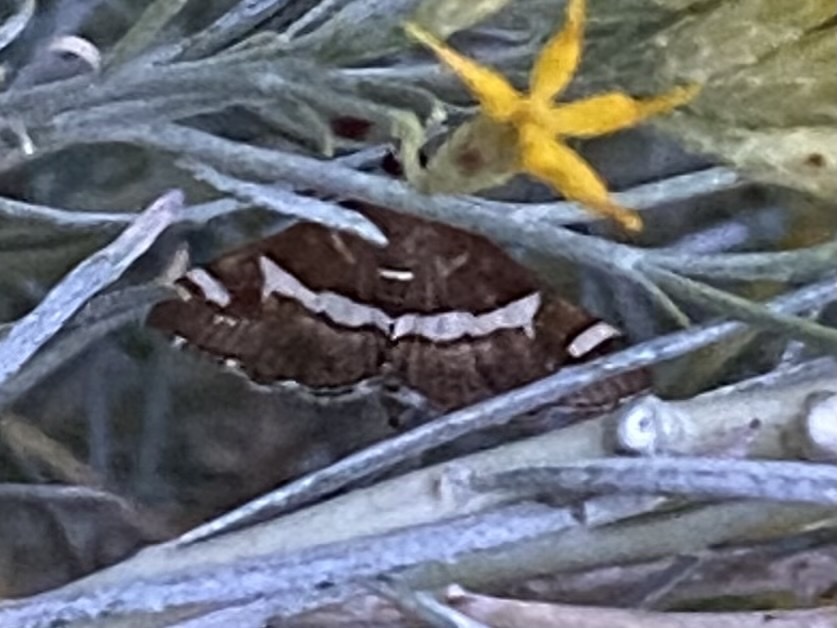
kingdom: Animalia
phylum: Arthropoda
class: Insecta
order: Lepidoptera
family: Crambidae
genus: Spoladea
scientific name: Spoladea recurvalis
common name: Beet webworm moth
